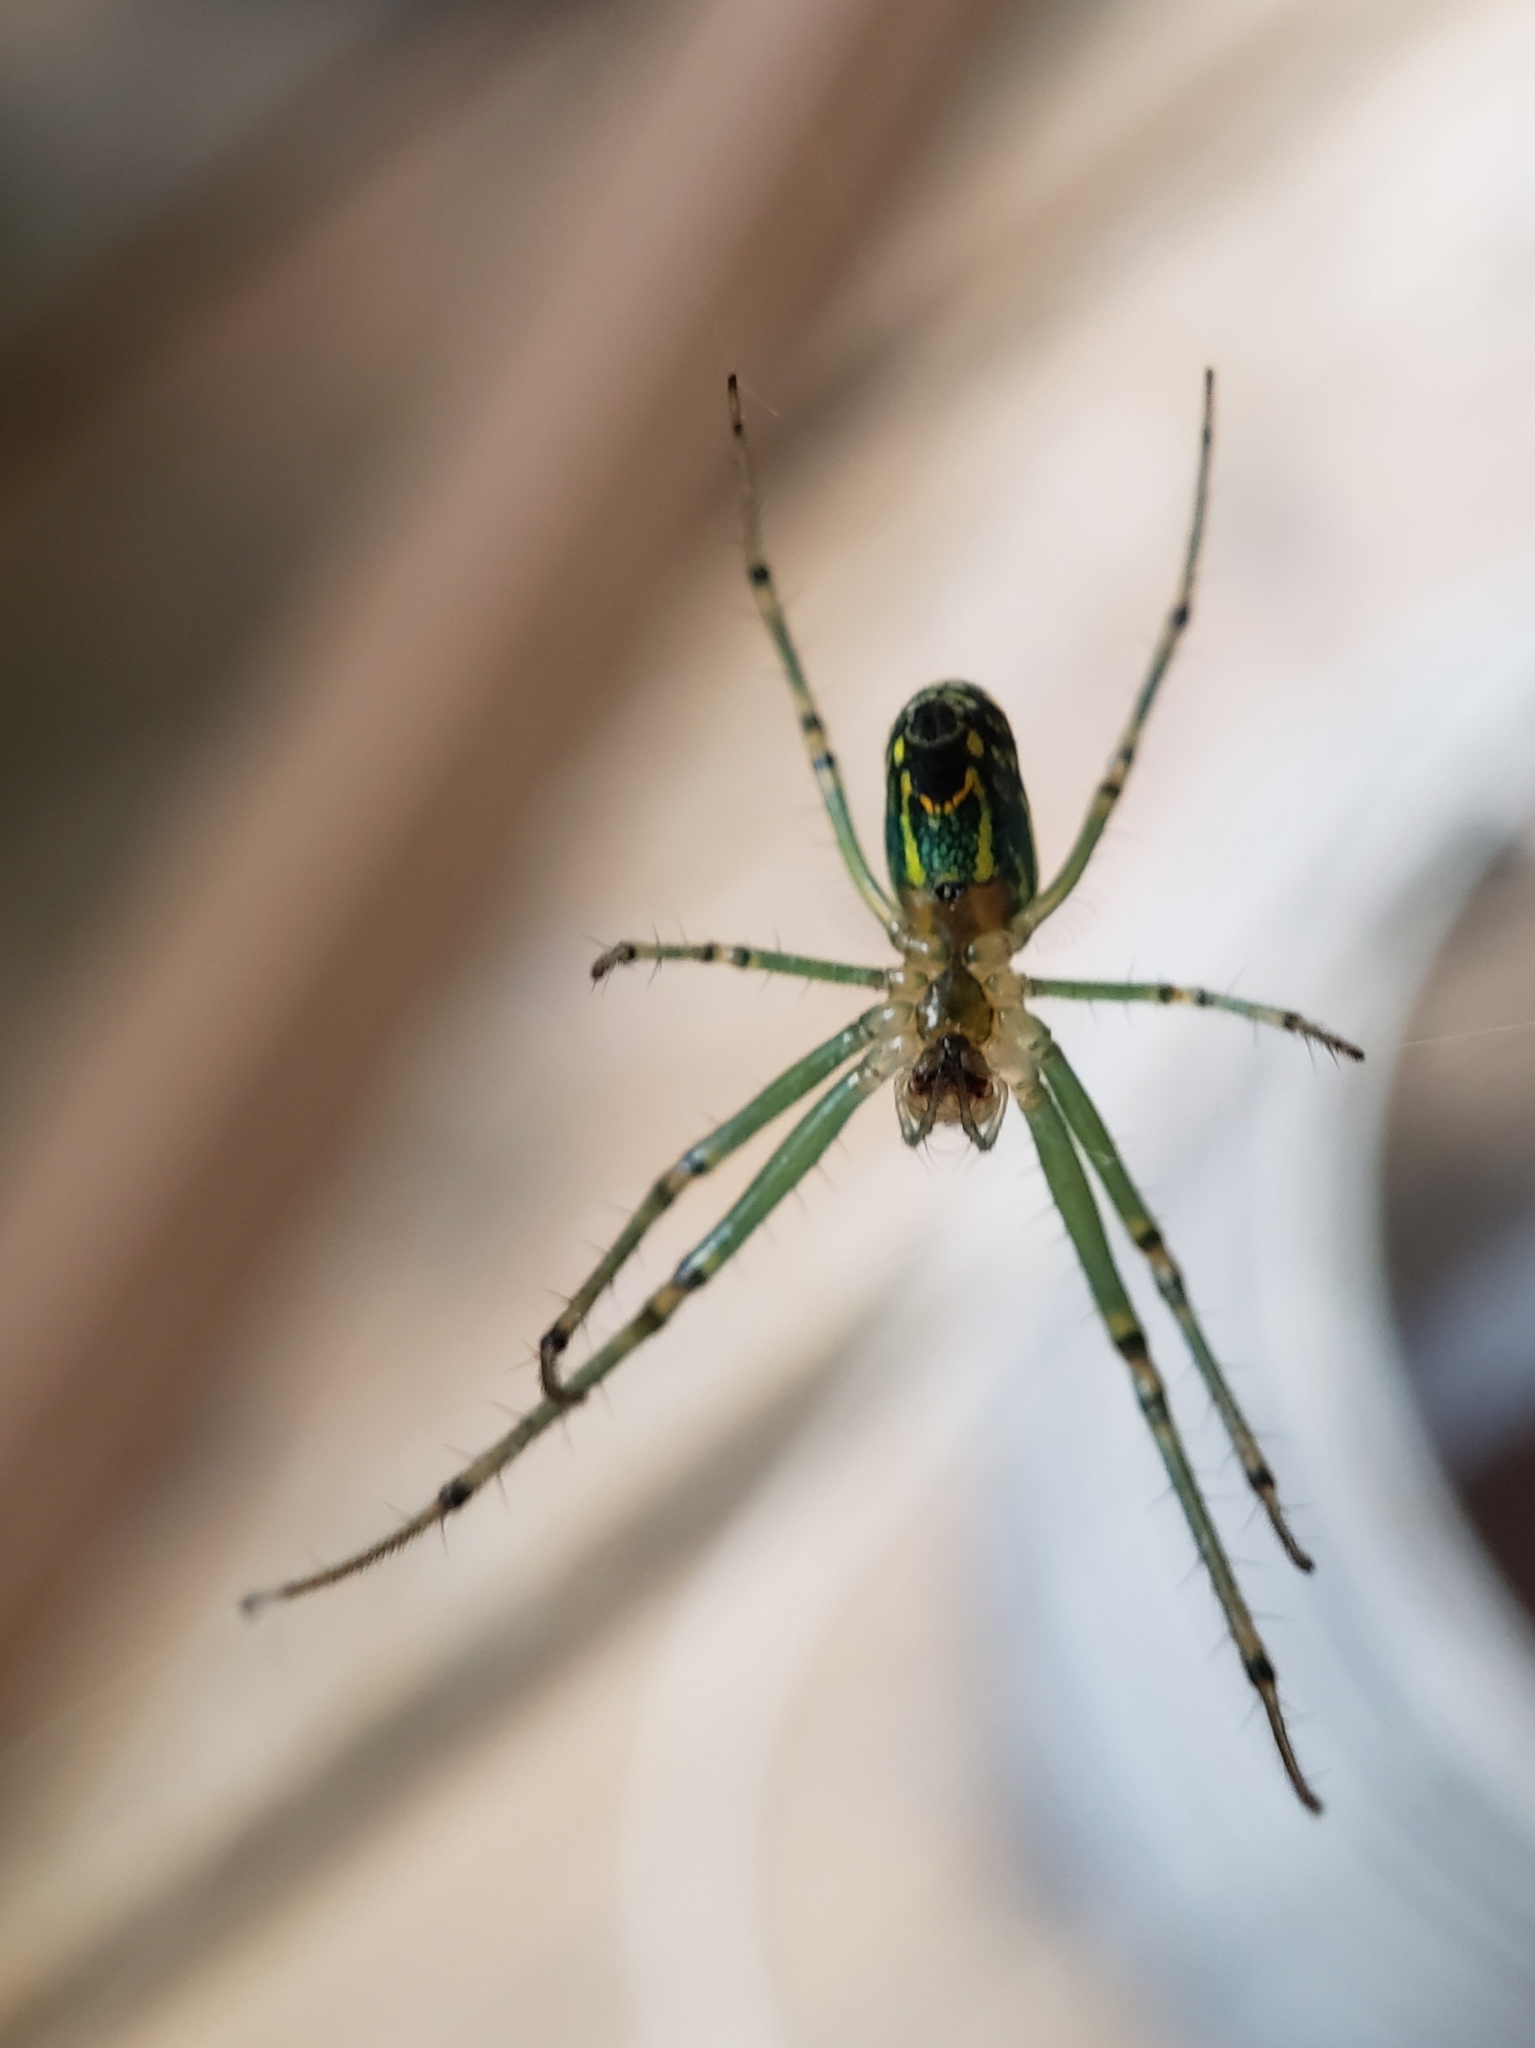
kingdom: Animalia
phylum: Arthropoda
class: Arachnida
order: Araneae
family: Tetragnathidae
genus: Leucauge
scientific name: Leucauge venusta
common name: Longjawed orb weavers
